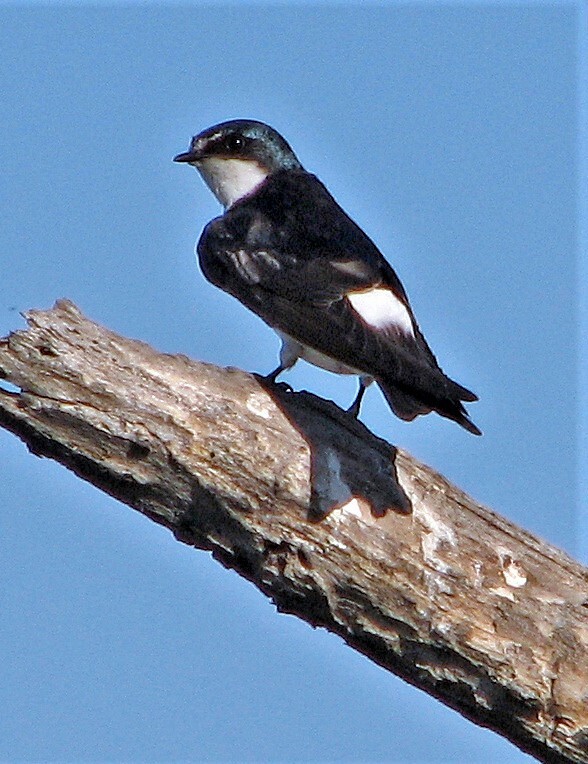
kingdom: Animalia
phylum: Chordata
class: Aves
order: Passeriformes
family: Hirundinidae
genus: Tachycineta
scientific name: Tachycineta leucorrhoa
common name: White-rumped swallow
